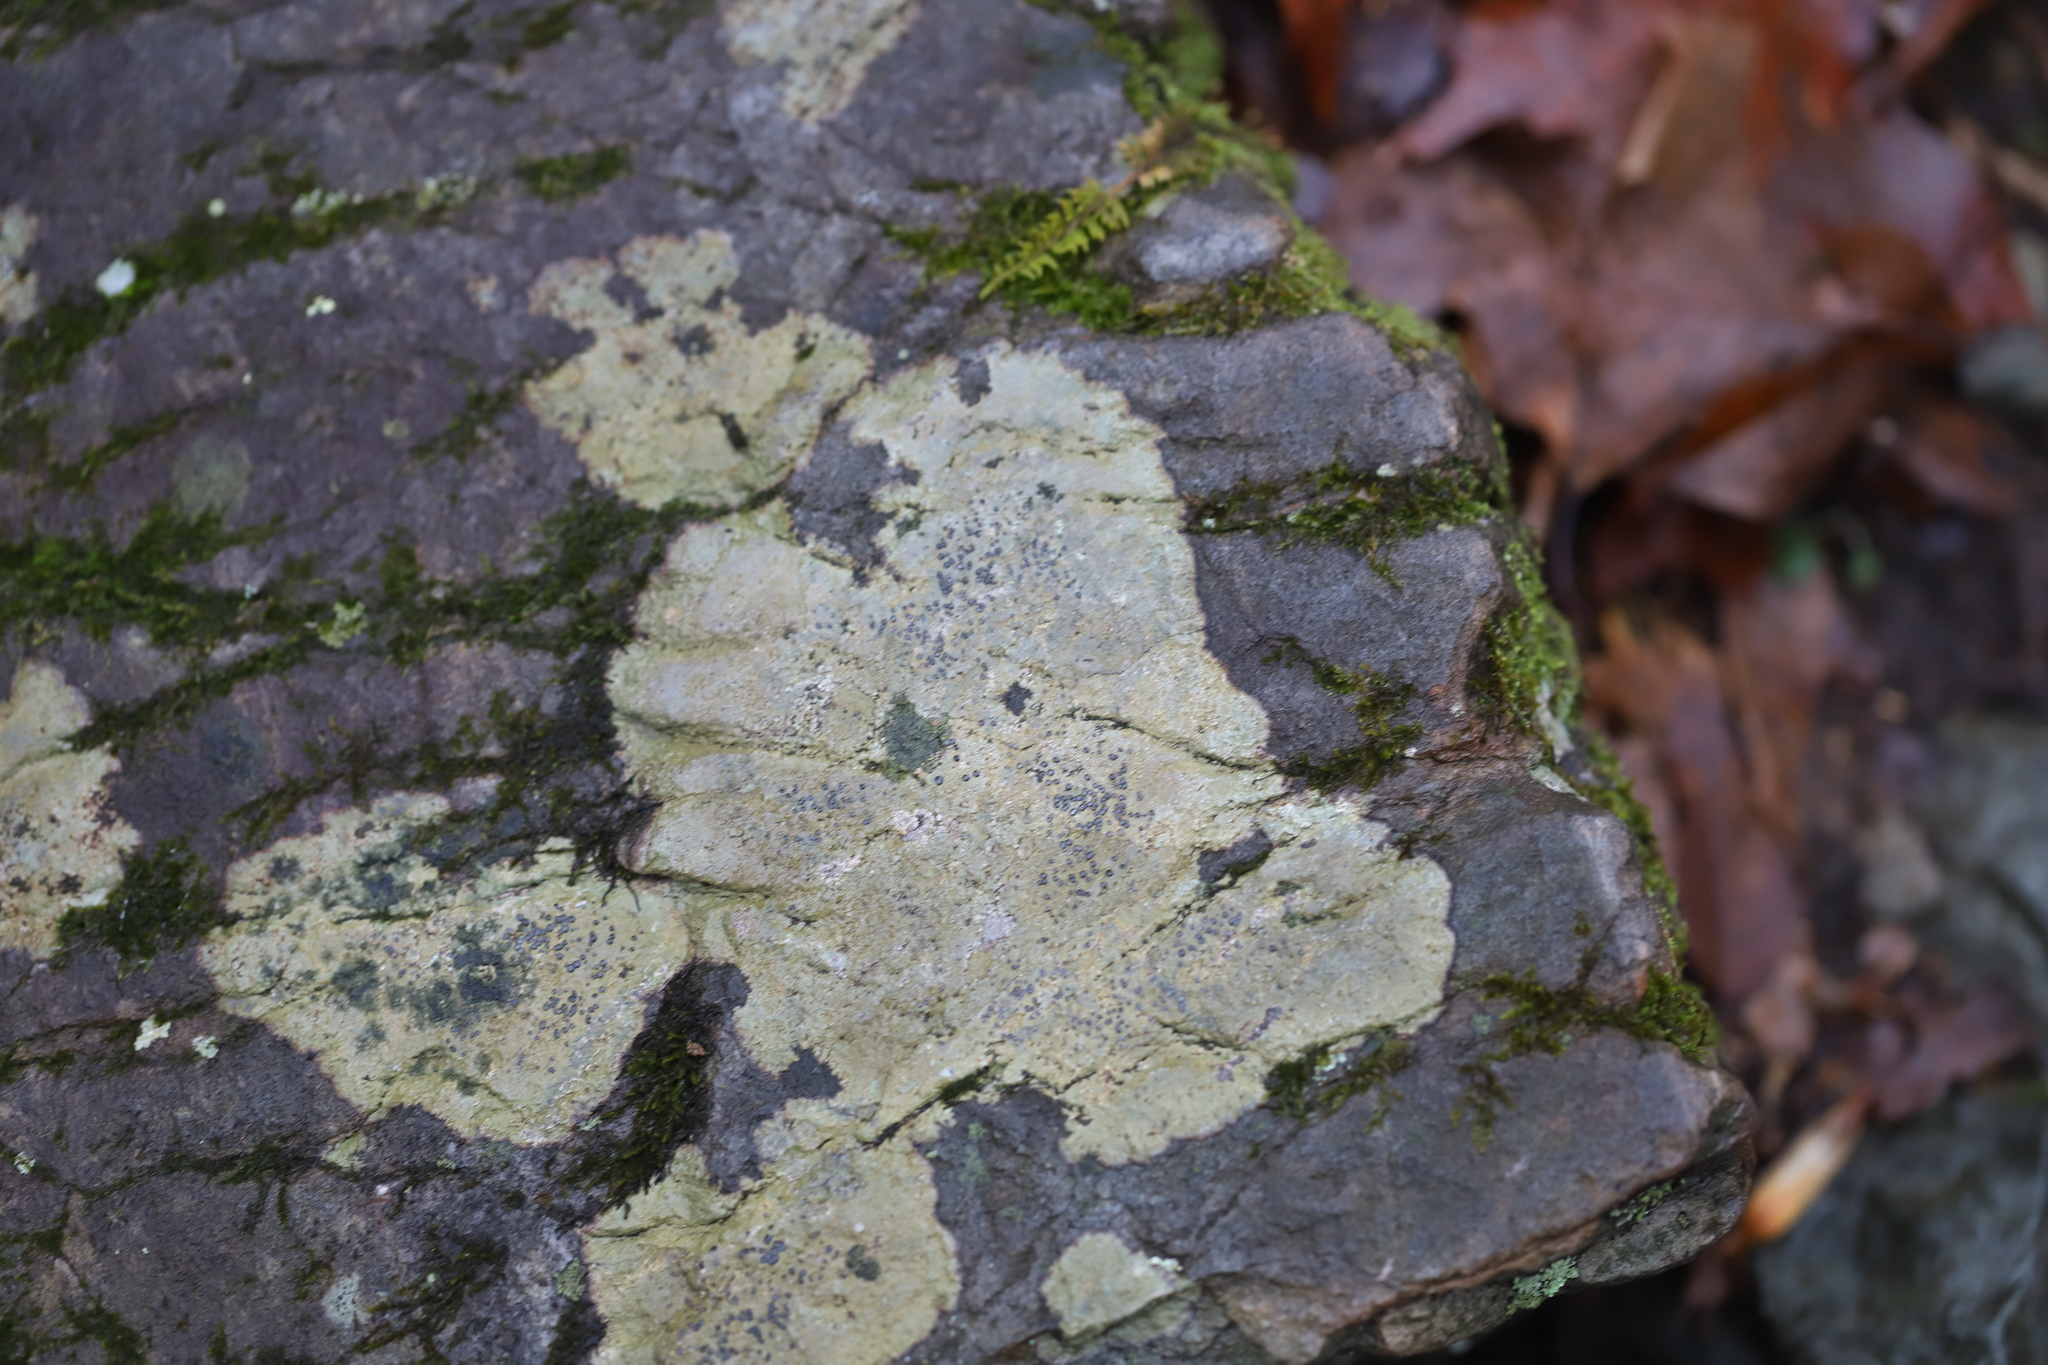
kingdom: Fungi
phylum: Ascomycota
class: Lecanoromycetes
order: Lecideales
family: Lecideaceae
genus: Porpidia
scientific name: Porpidia albocaerulescens
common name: Smokey-eyed boulder lichen
